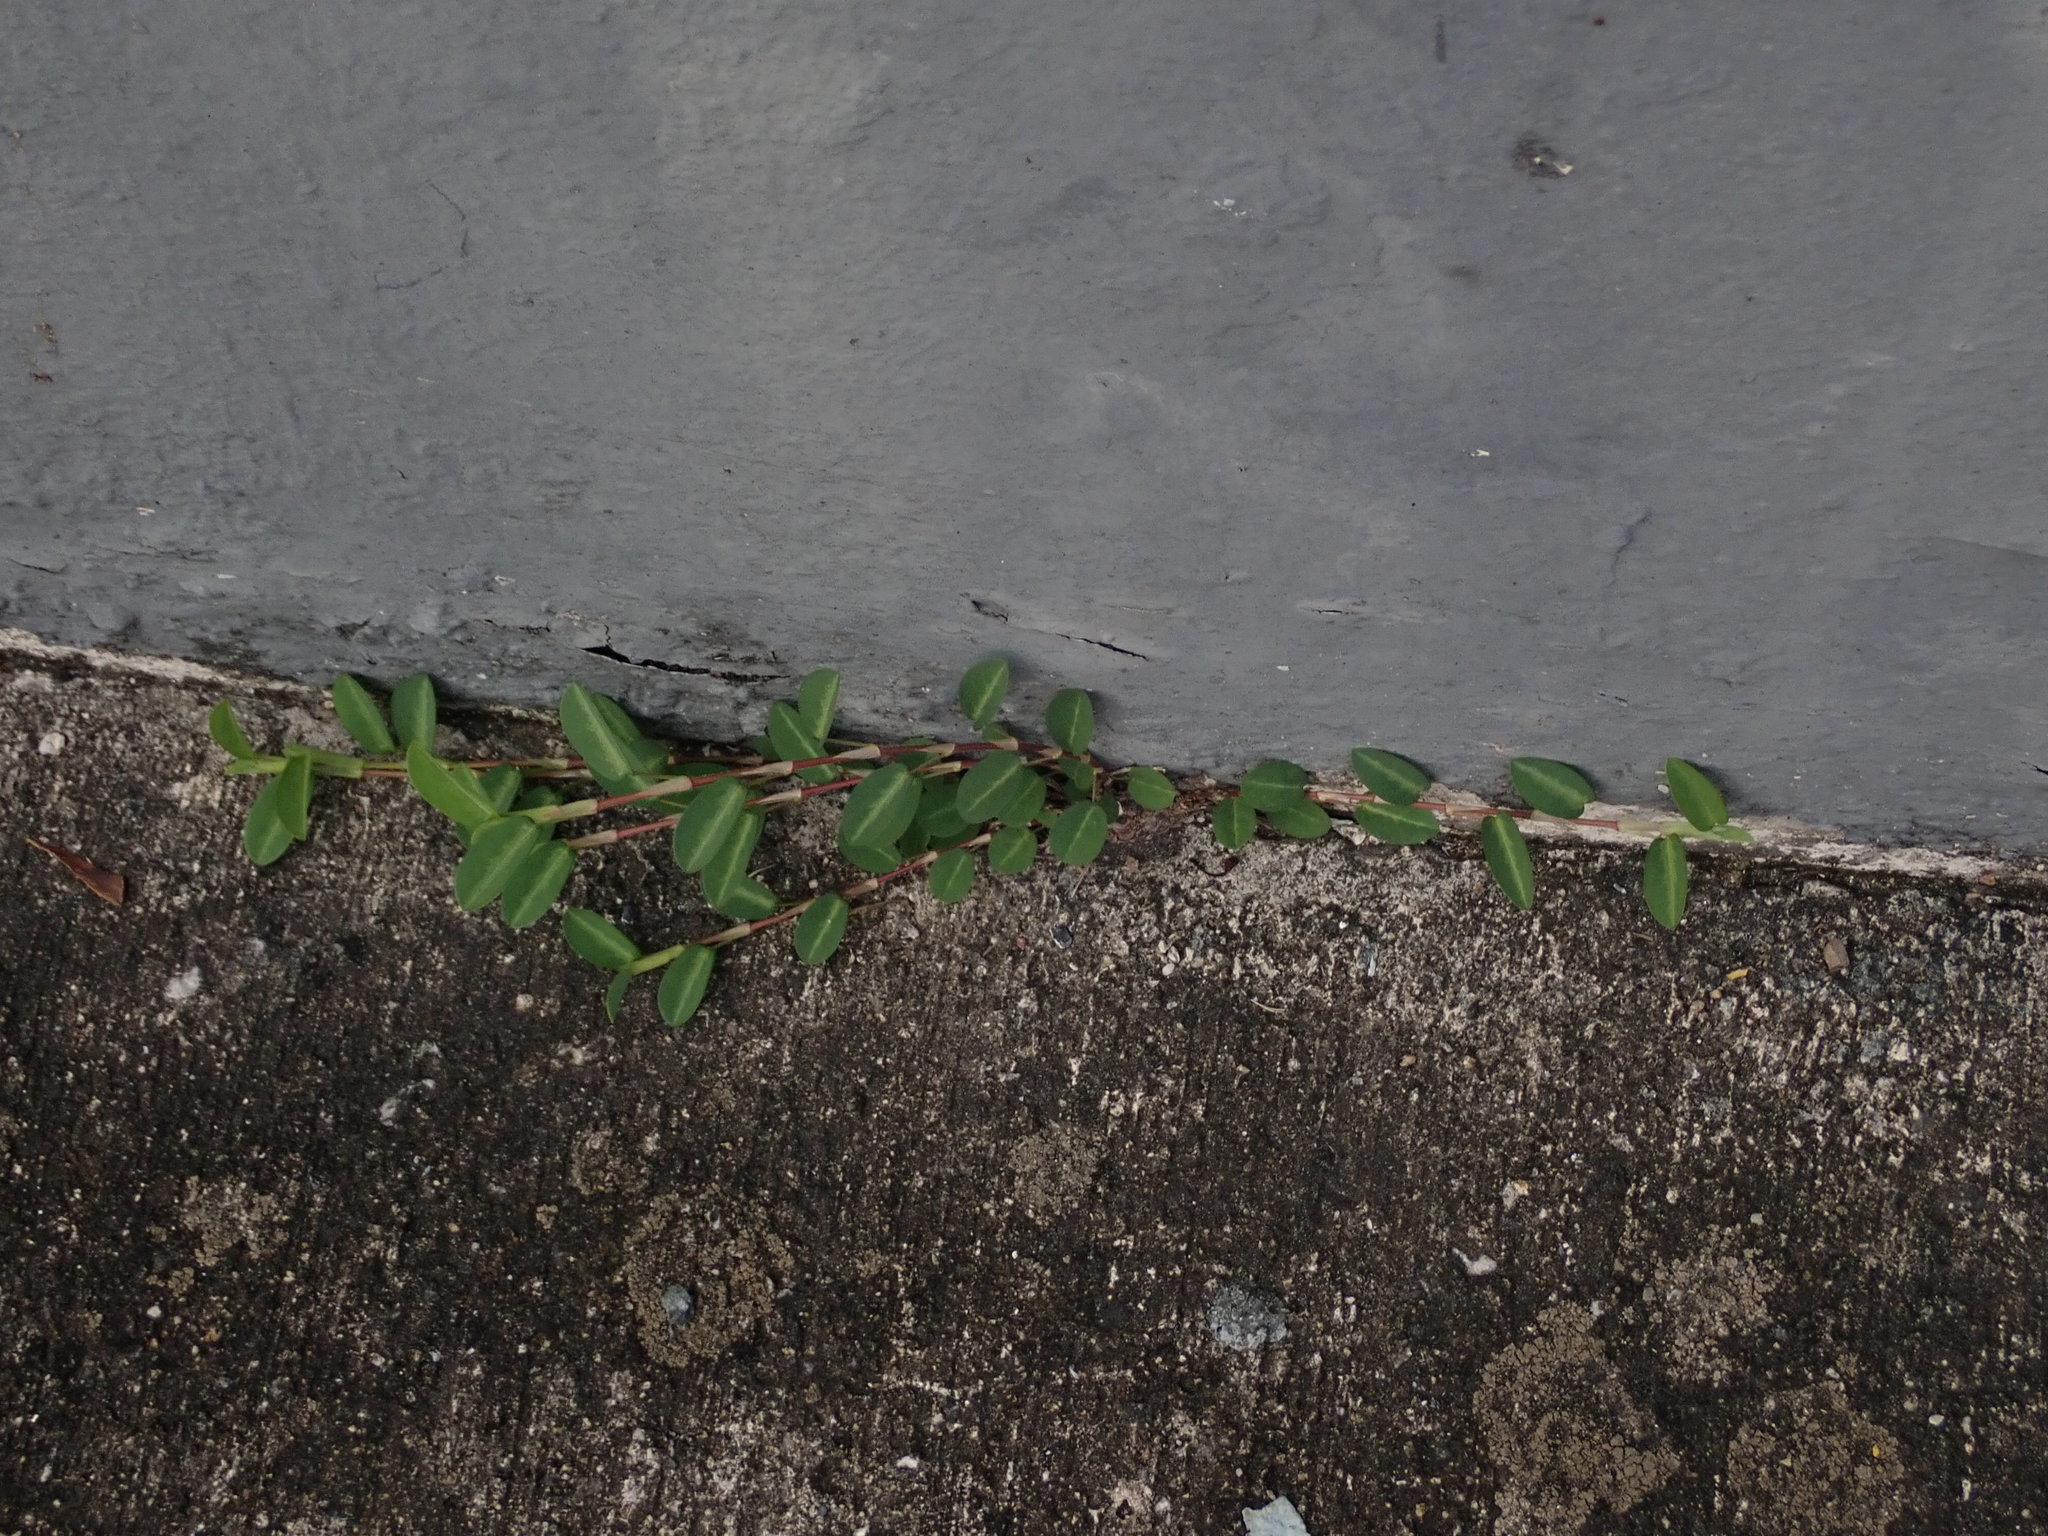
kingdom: Plantae
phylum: Tracheophyta
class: Magnoliopsida
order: Fabales
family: Fabaceae
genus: Alysicarpus
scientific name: Alysicarpus vaginalis
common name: White moneywort
